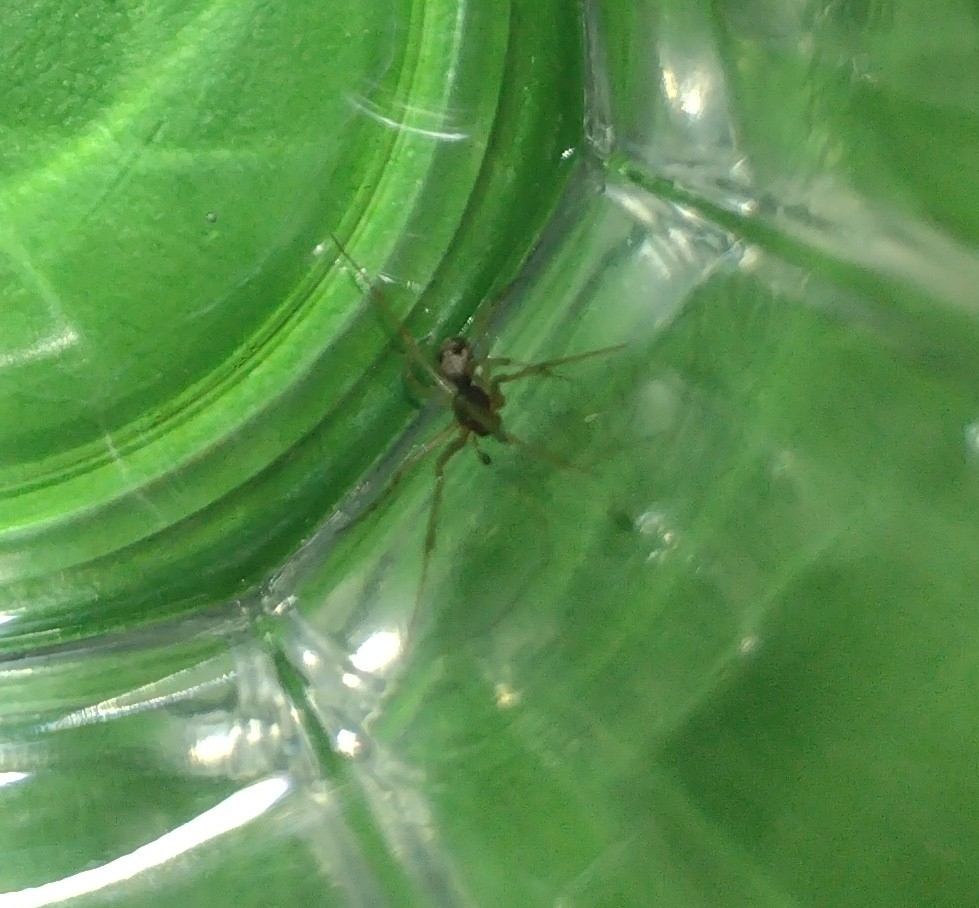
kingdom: Animalia
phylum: Arthropoda
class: Arachnida
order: Araneae
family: Theridiidae
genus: Steatoda
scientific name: Steatoda triangulosa
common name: Triangulate bud spider
